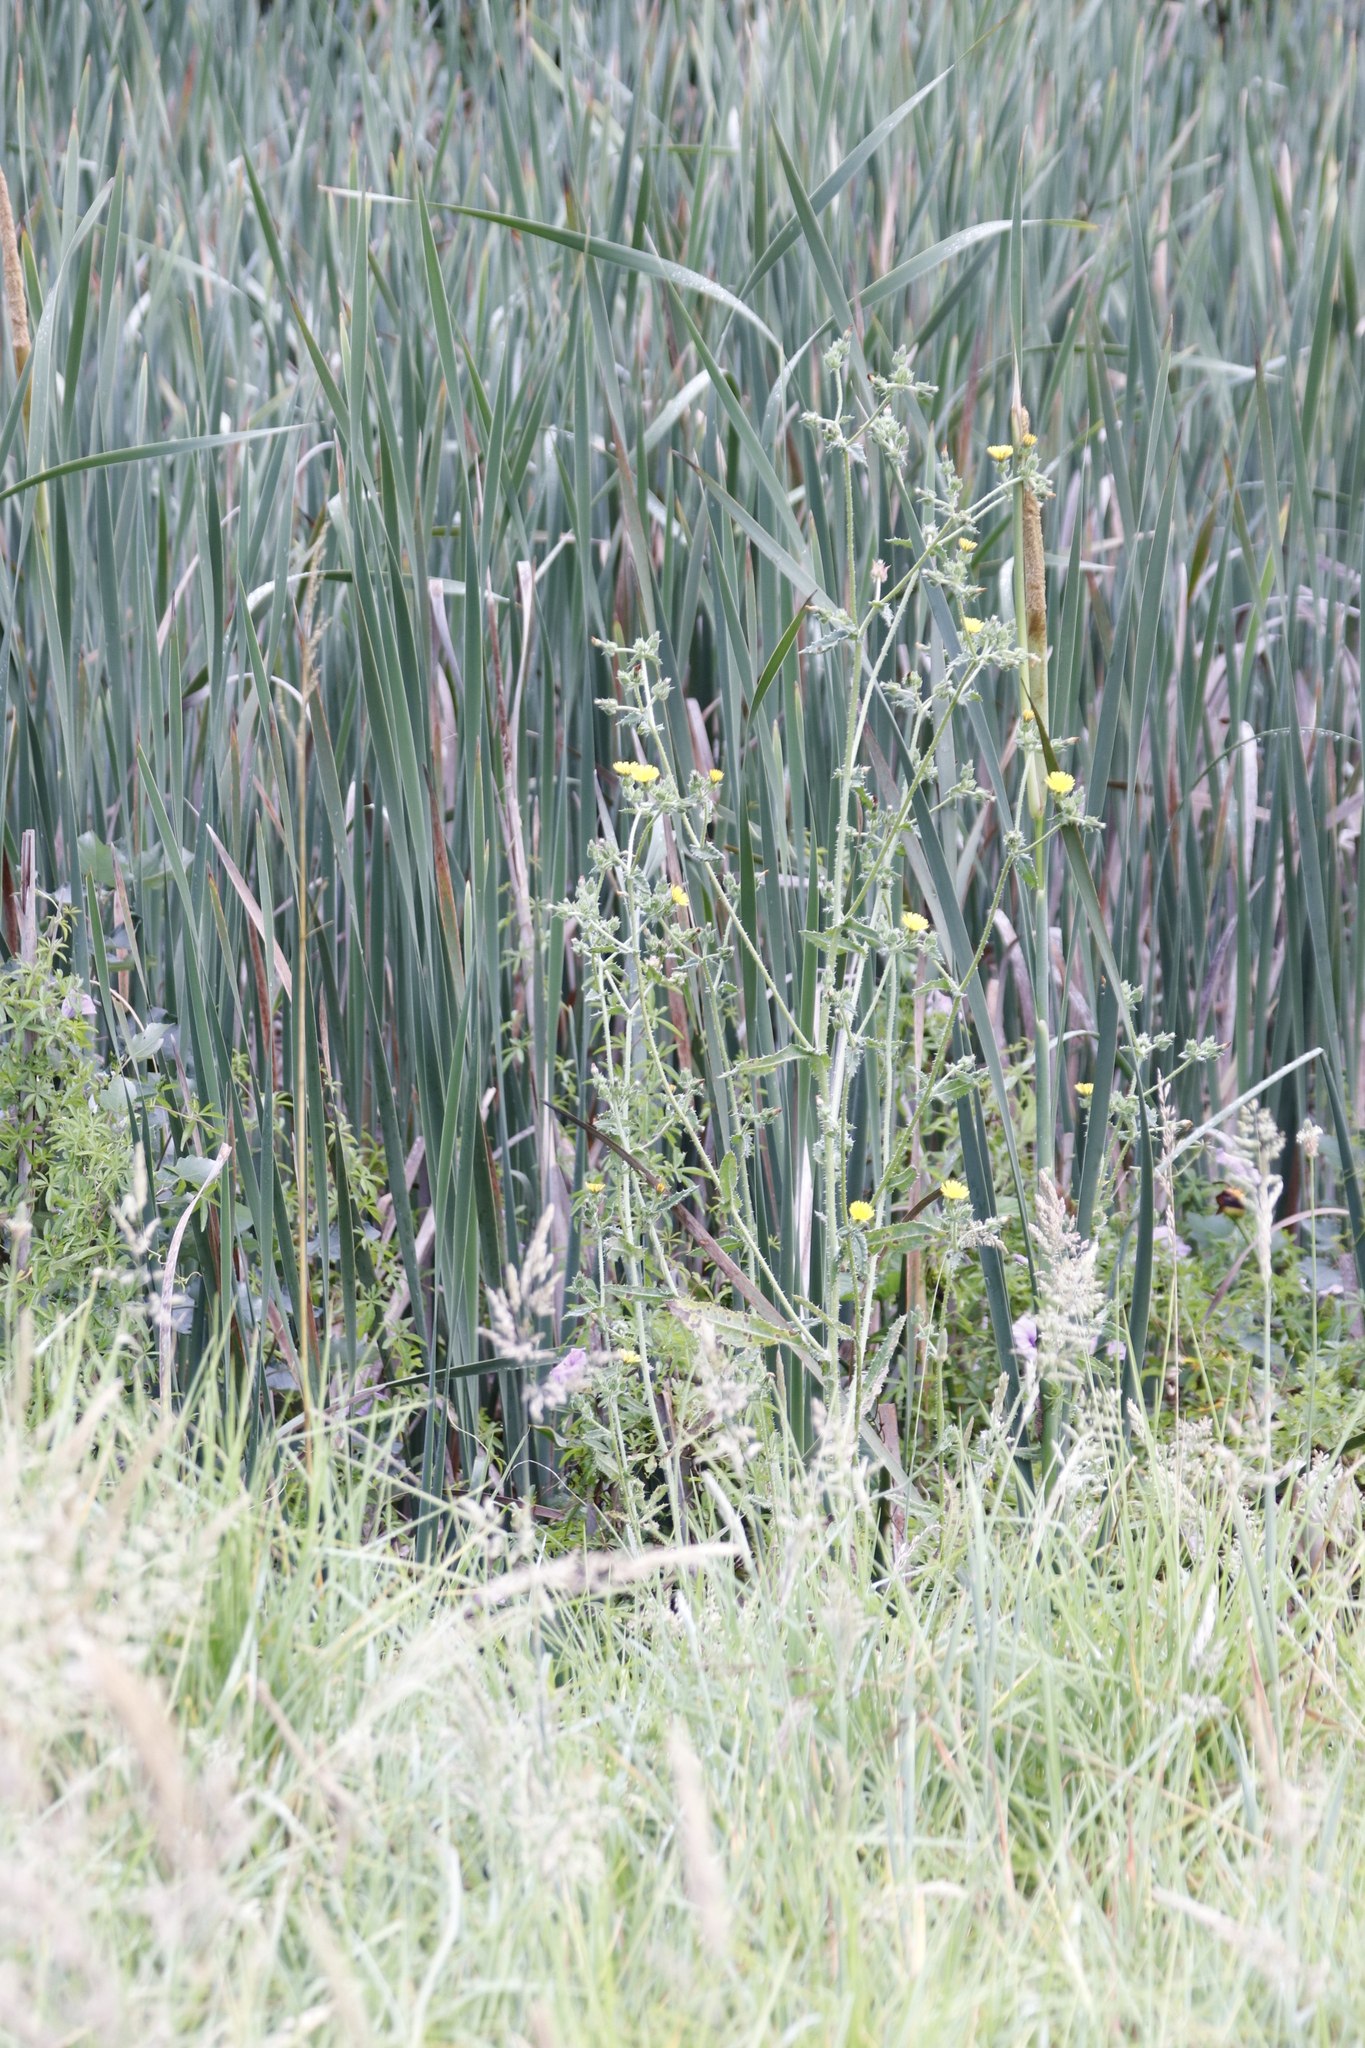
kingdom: Plantae
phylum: Tracheophyta
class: Magnoliopsida
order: Asterales
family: Asteraceae
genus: Helminthotheca
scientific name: Helminthotheca echioides
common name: Ox-tongue
